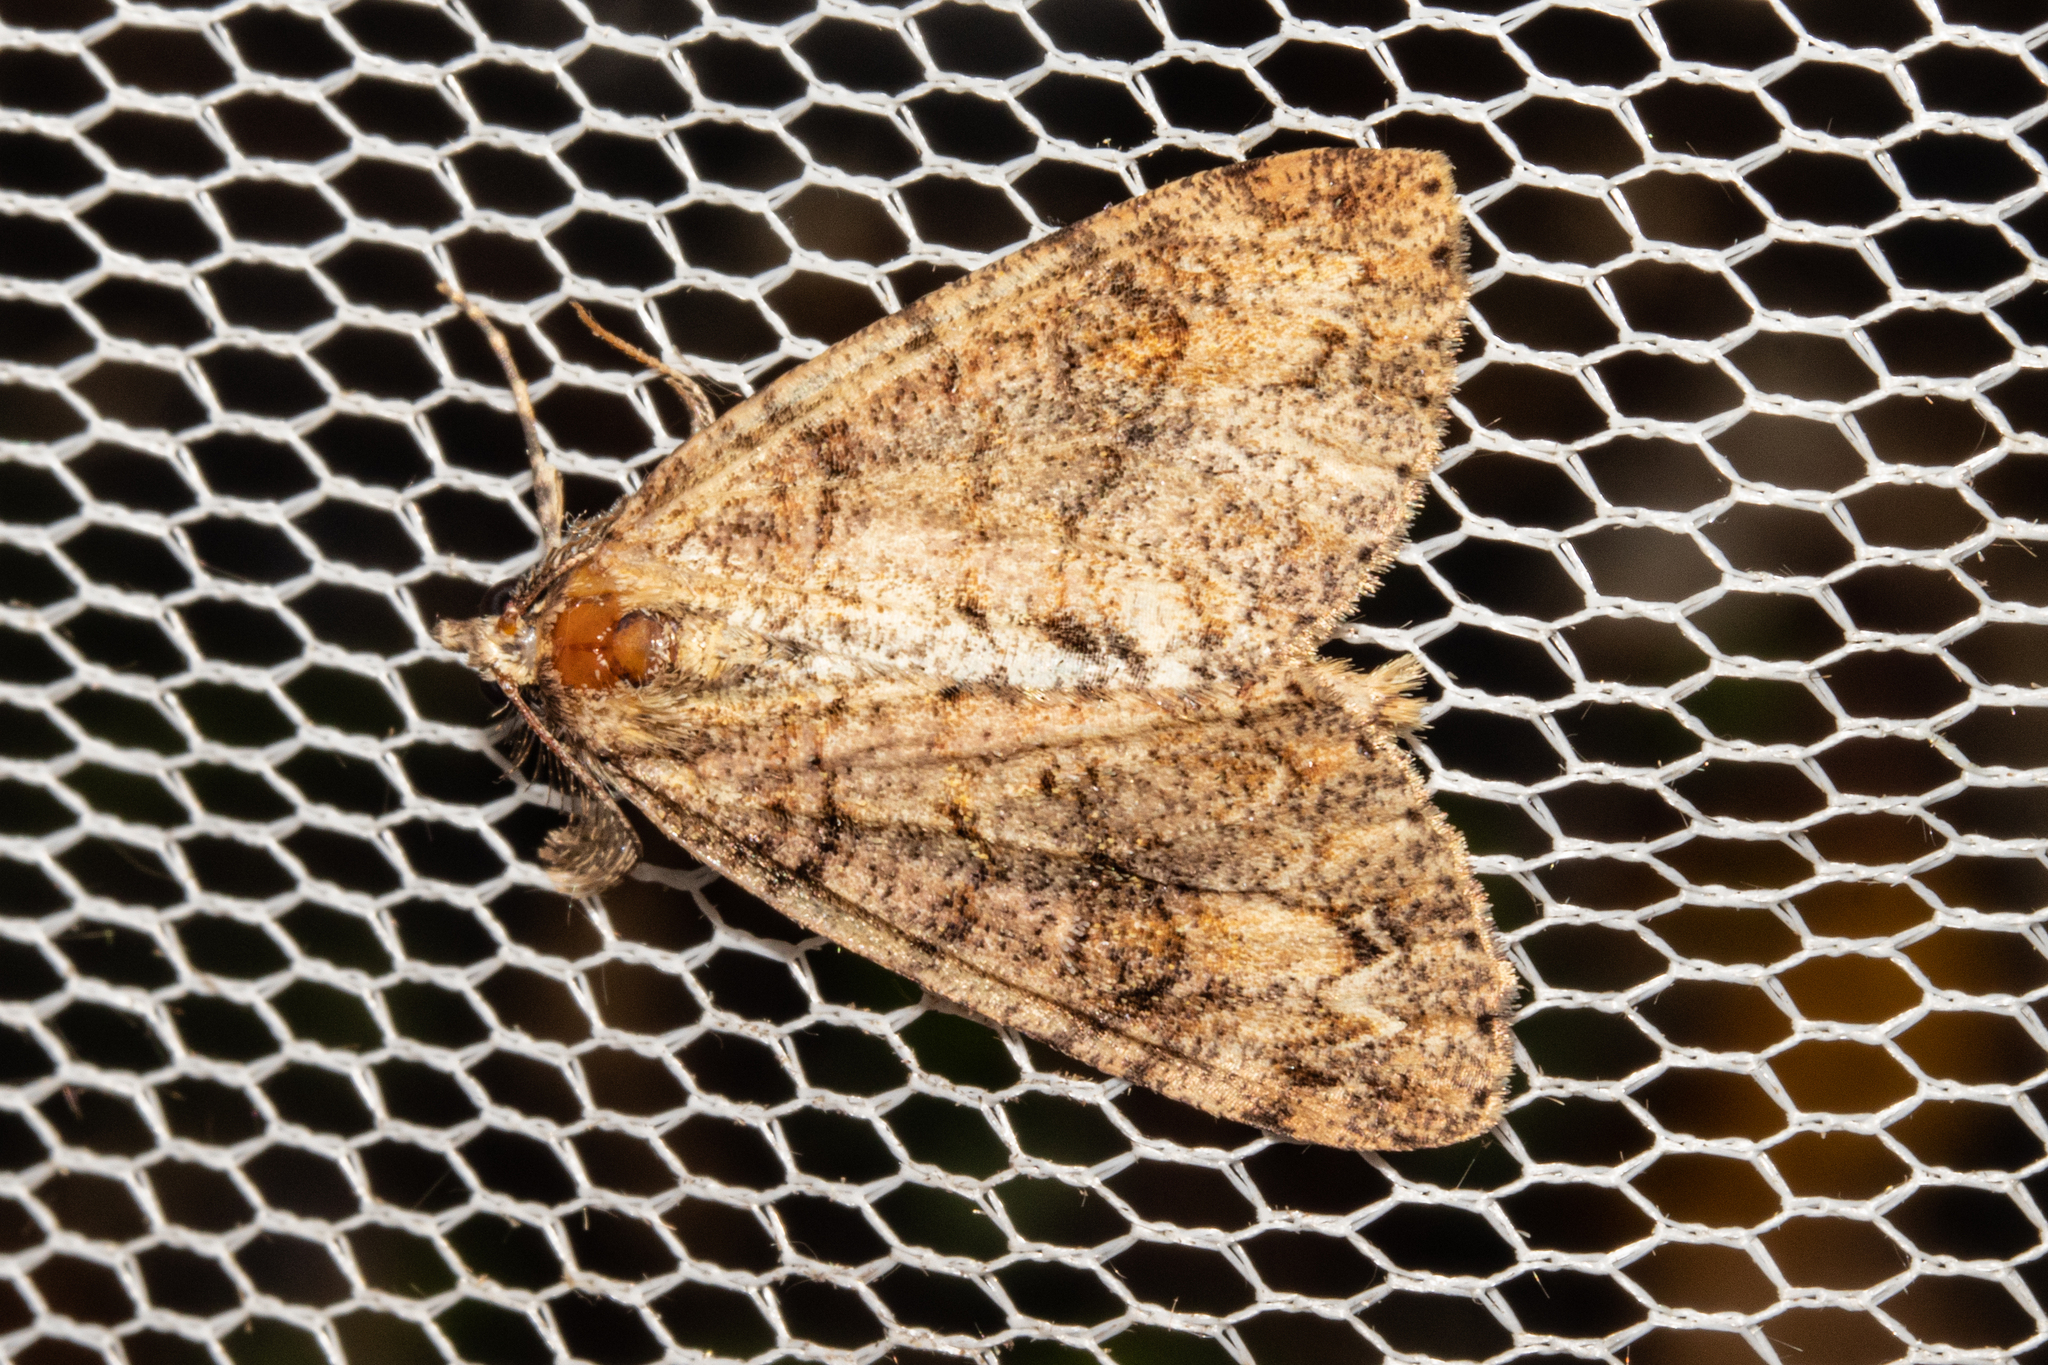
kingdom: Animalia
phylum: Arthropoda
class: Insecta
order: Lepidoptera
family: Geometridae
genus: Pseudocoremia
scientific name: Pseudocoremia suavis
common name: Common forest looper
